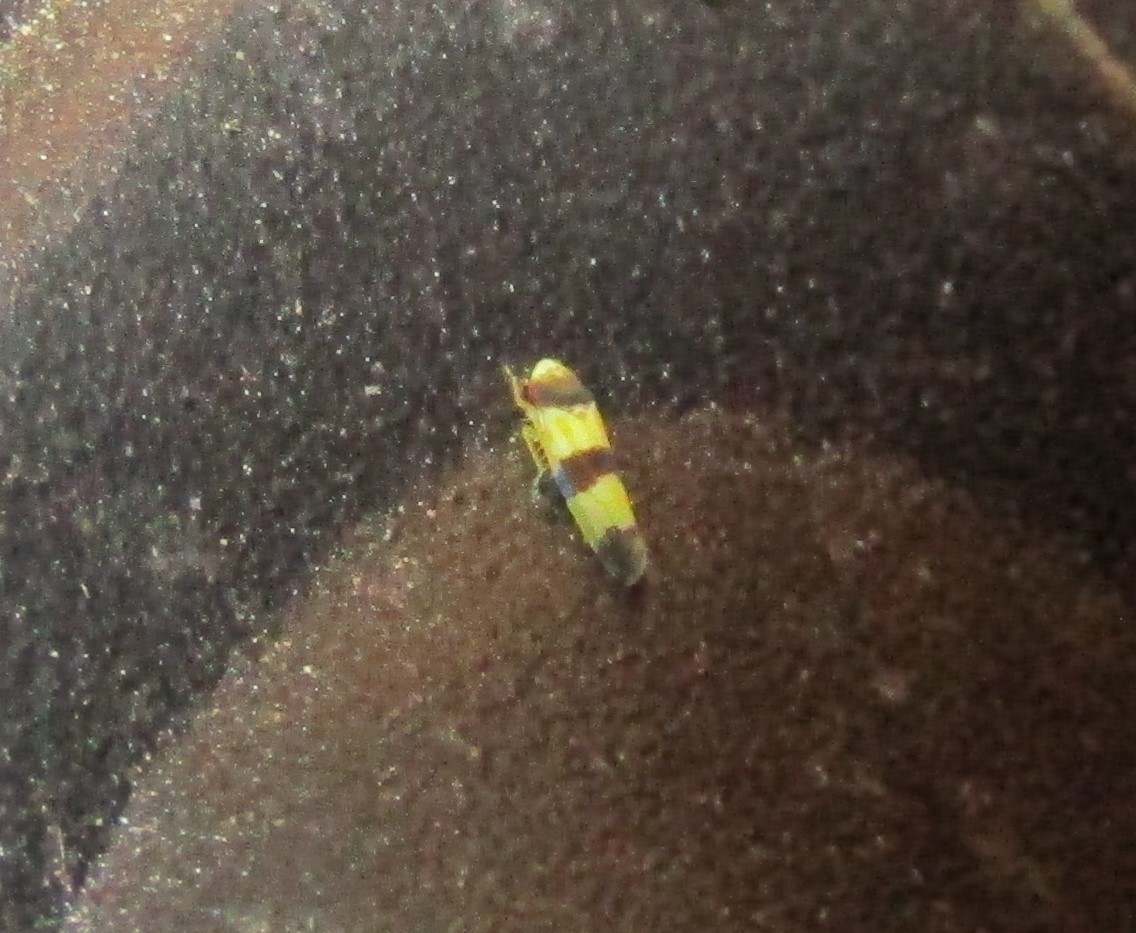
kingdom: Animalia
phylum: Arthropoda
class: Insecta
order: Hemiptera
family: Cicadellidae
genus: Erythroneura
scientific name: Erythroneura tricincta
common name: The threebanded grape leafhopper
